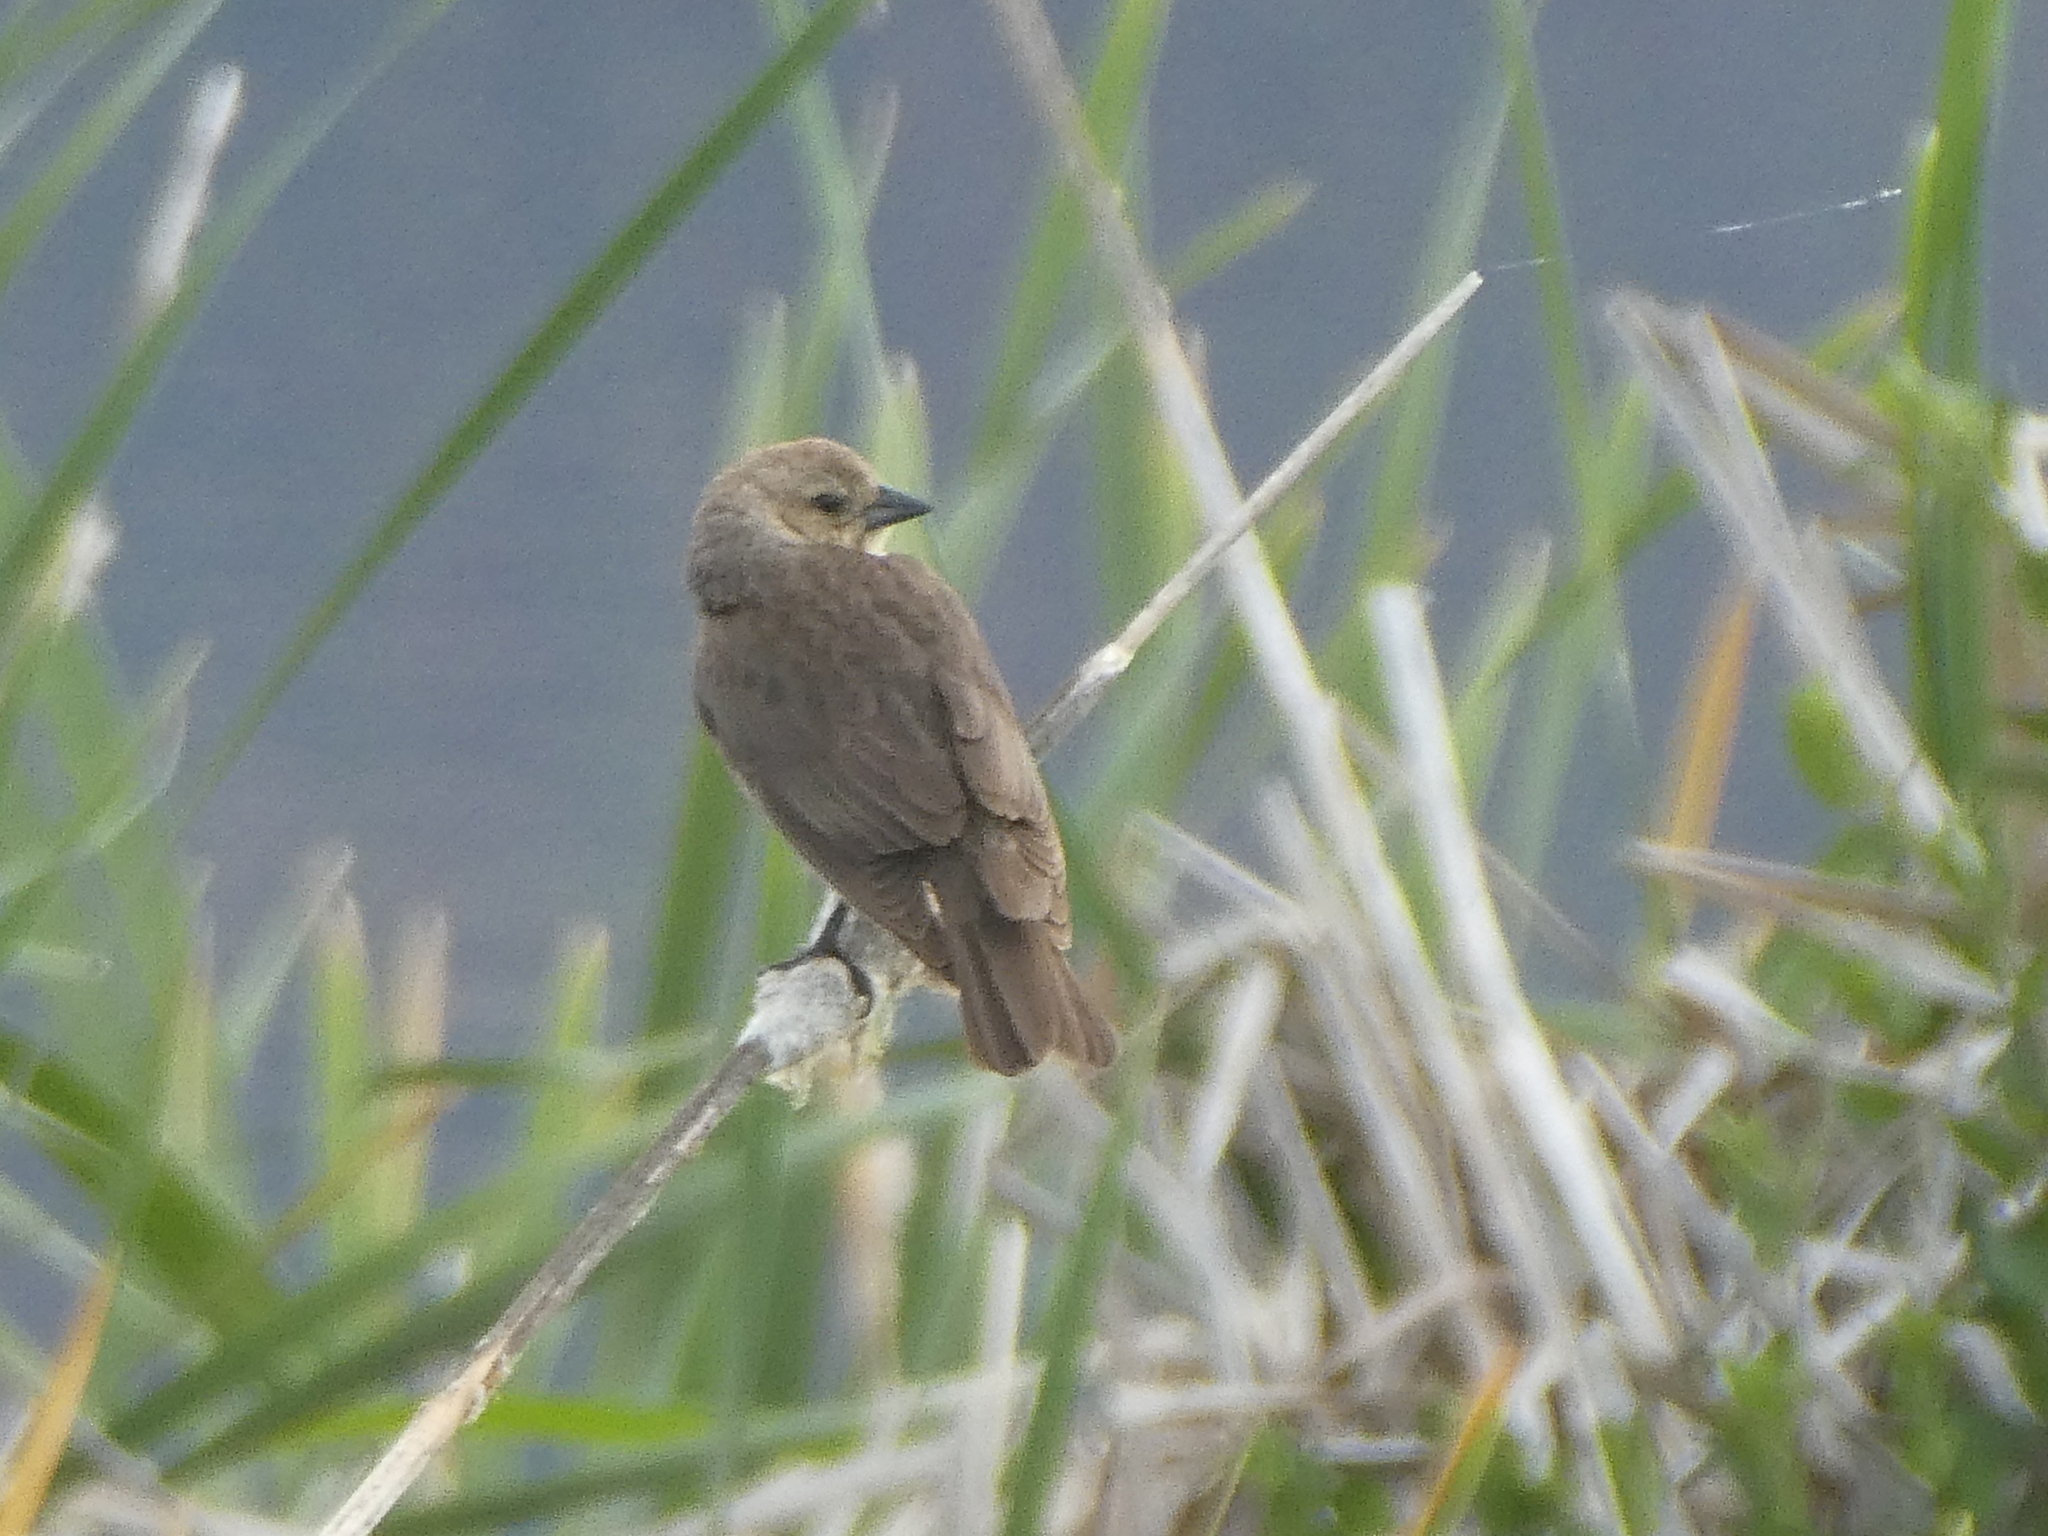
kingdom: Animalia
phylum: Chordata
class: Aves
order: Passeriformes
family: Icteridae
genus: Molothrus
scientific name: Molothrus ater
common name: Brown-headed cowbird
